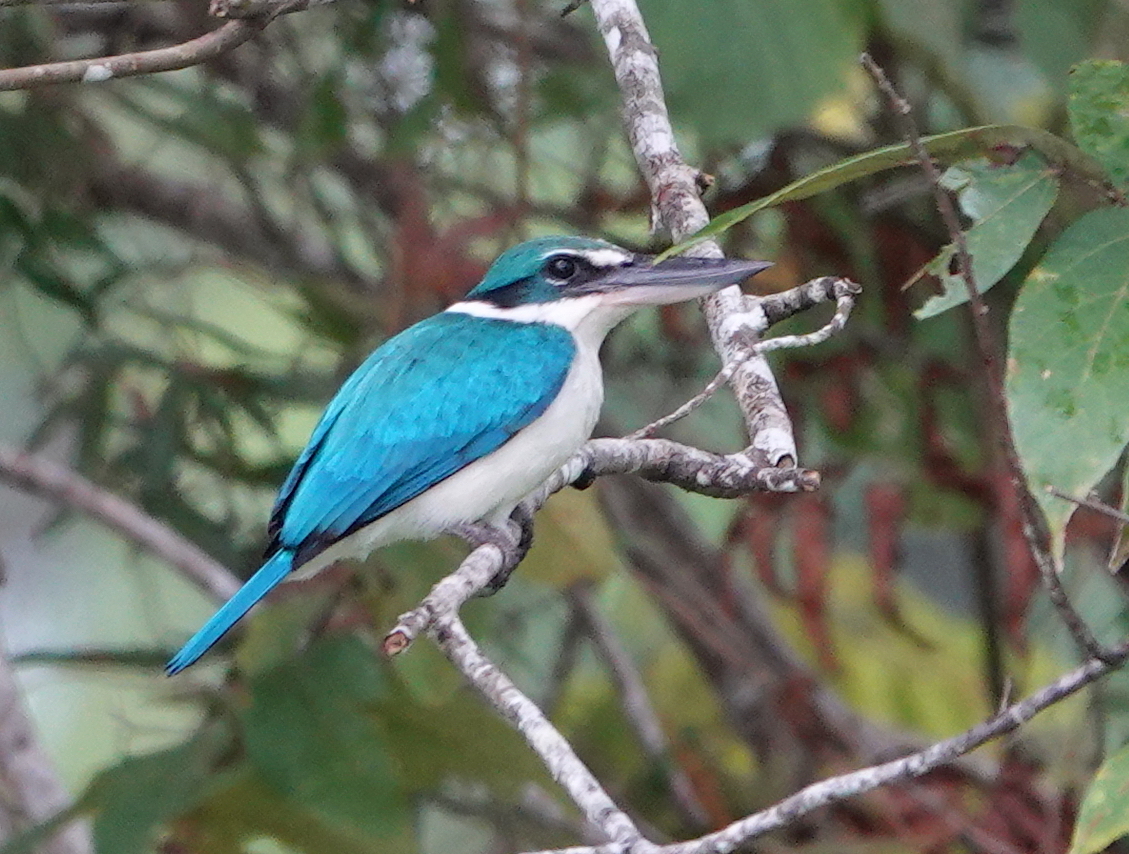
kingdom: Animalia
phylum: Chordata
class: Aves
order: Coraciiformes
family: Alcedinidae
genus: Todiramphus
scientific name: Todiramphus chloris
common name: Collared kingfisher
